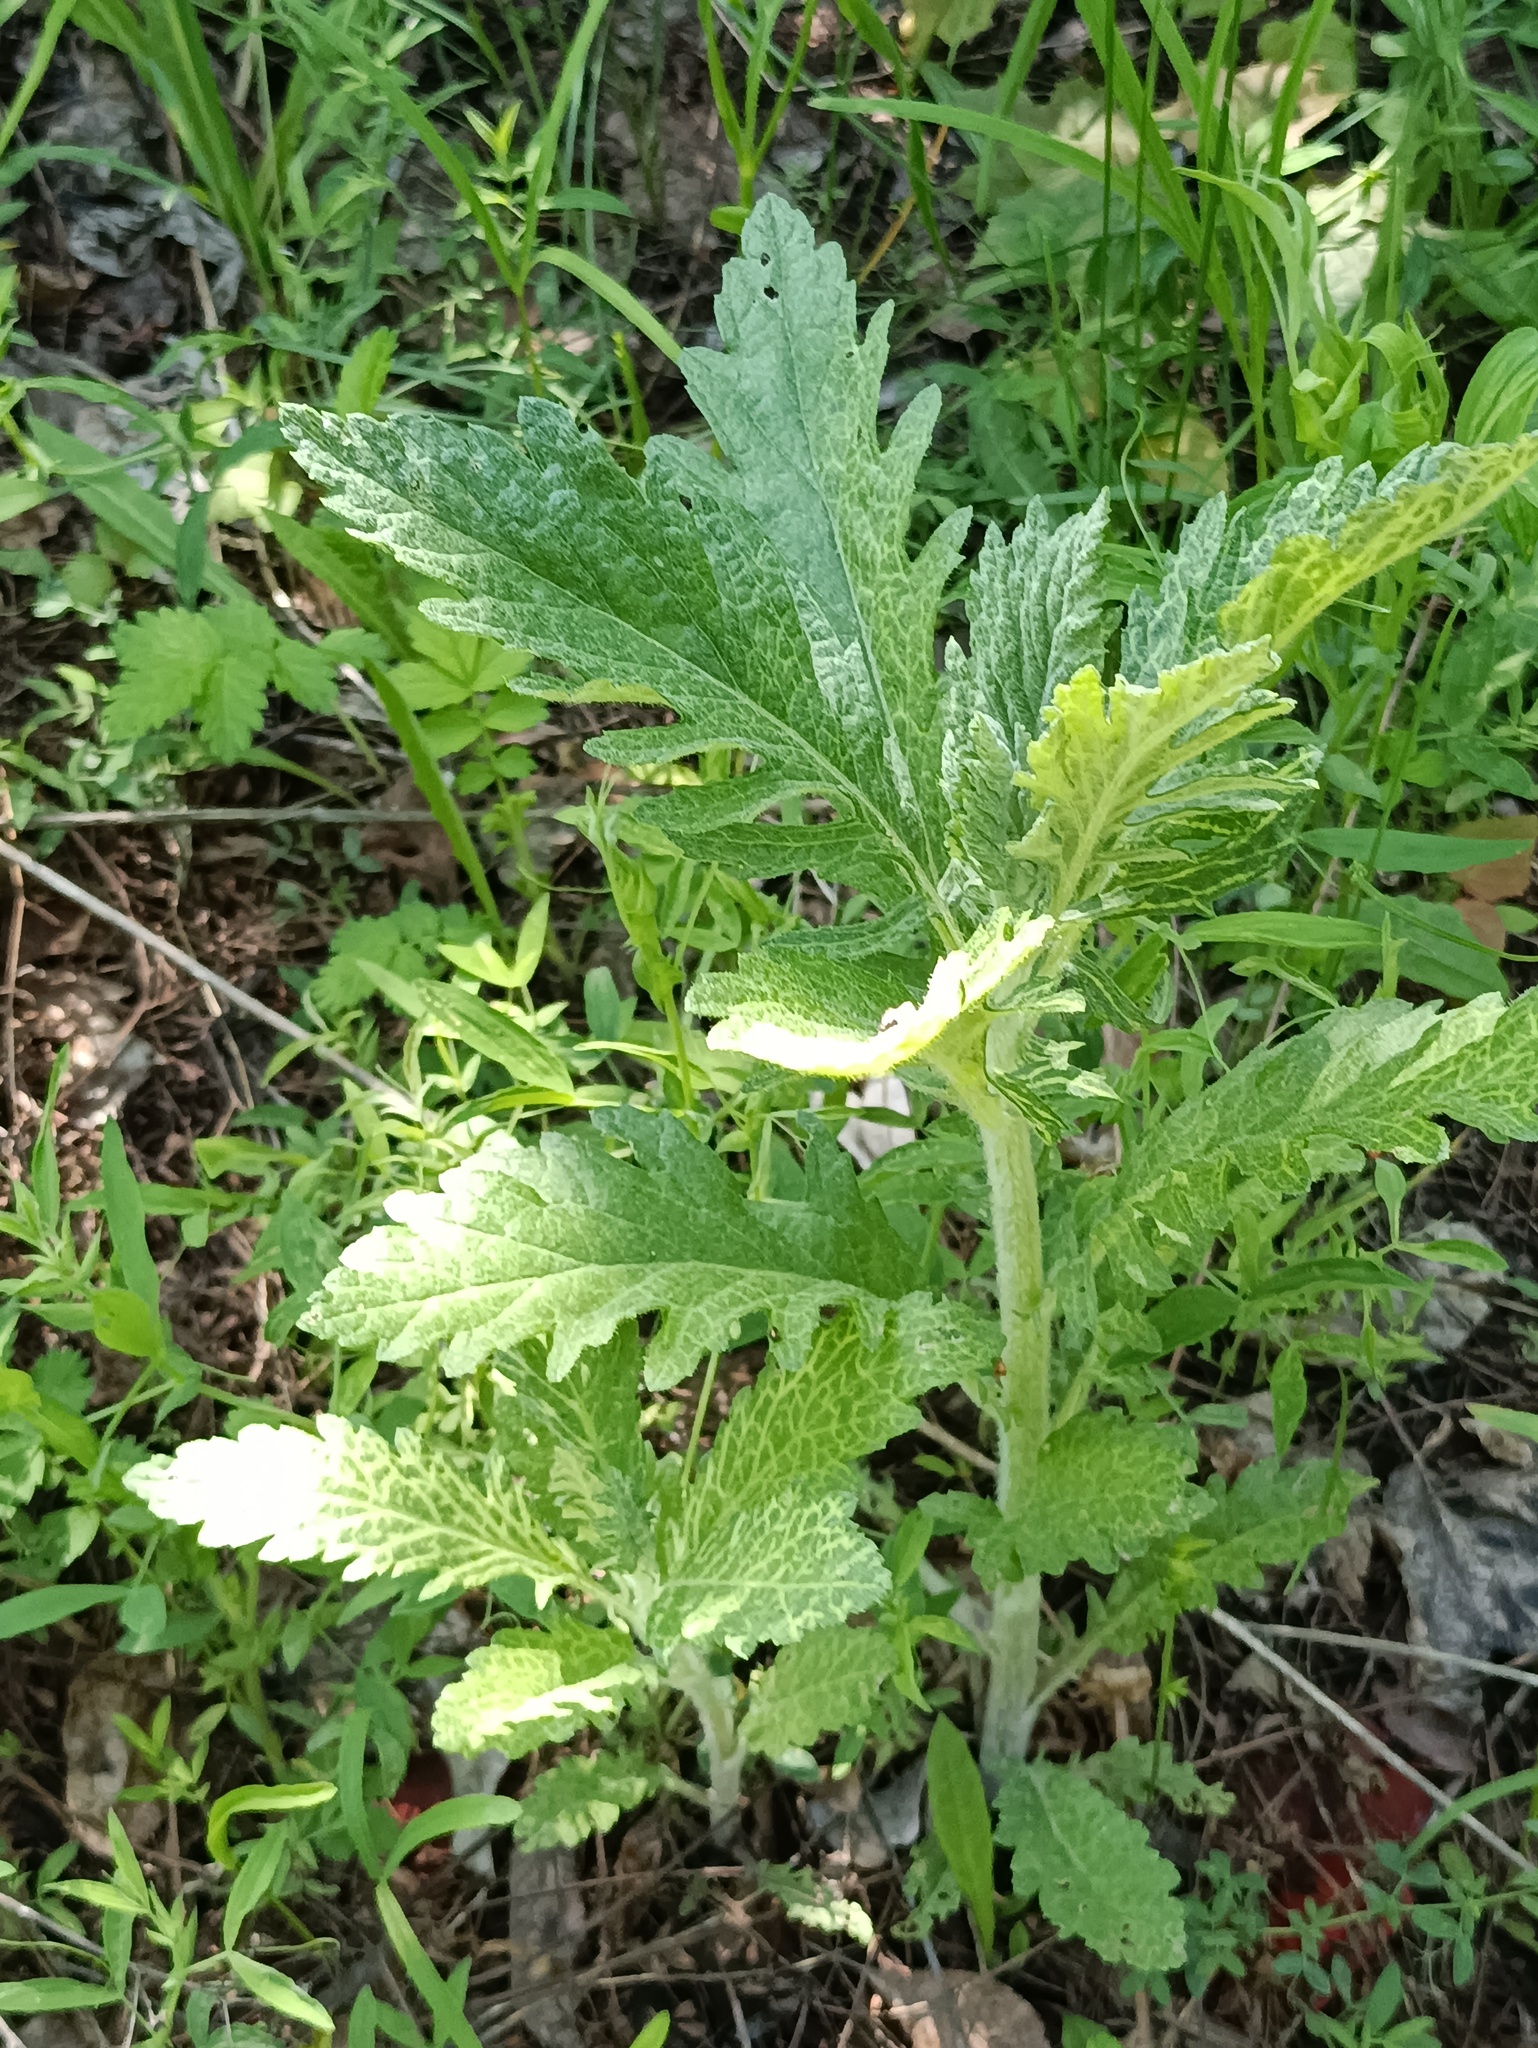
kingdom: Plantae
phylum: Tracheophyta
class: Magnoliopsida
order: Asterales
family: Asteraceae
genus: Jacobaea
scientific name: Jacobaea erucifolia
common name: Hoary ragwort
